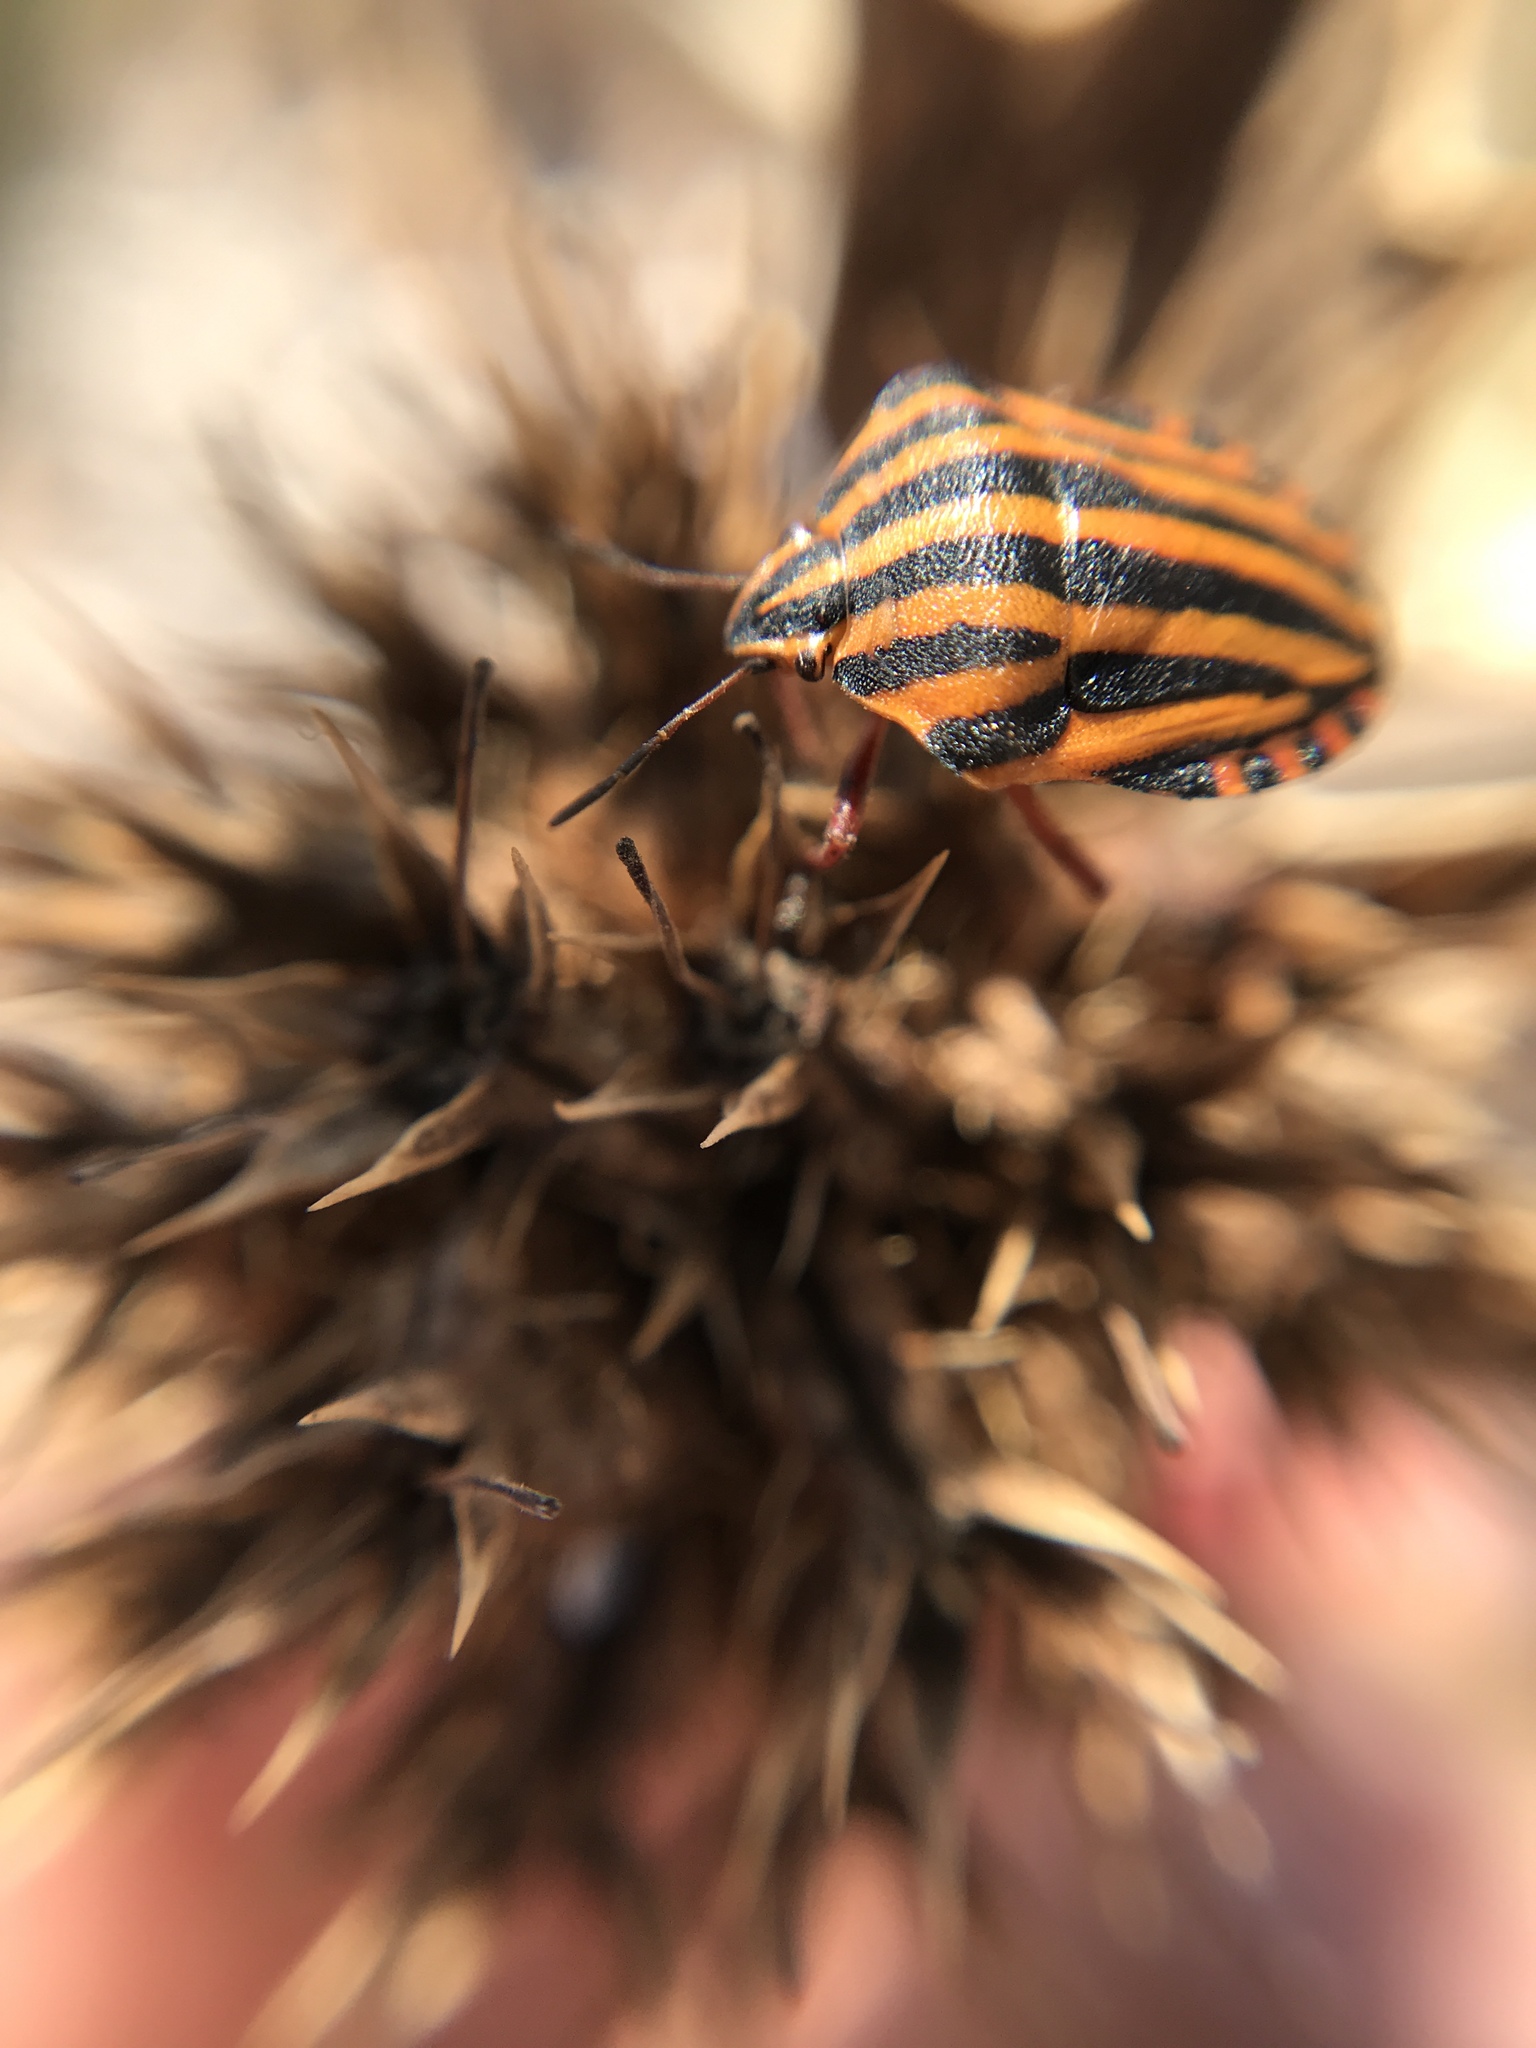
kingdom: Animalia
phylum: Arthropoda
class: Insecta
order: Hemiptera
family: Pentatomidae
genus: Graphosoma
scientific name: Graphosoma italicum
